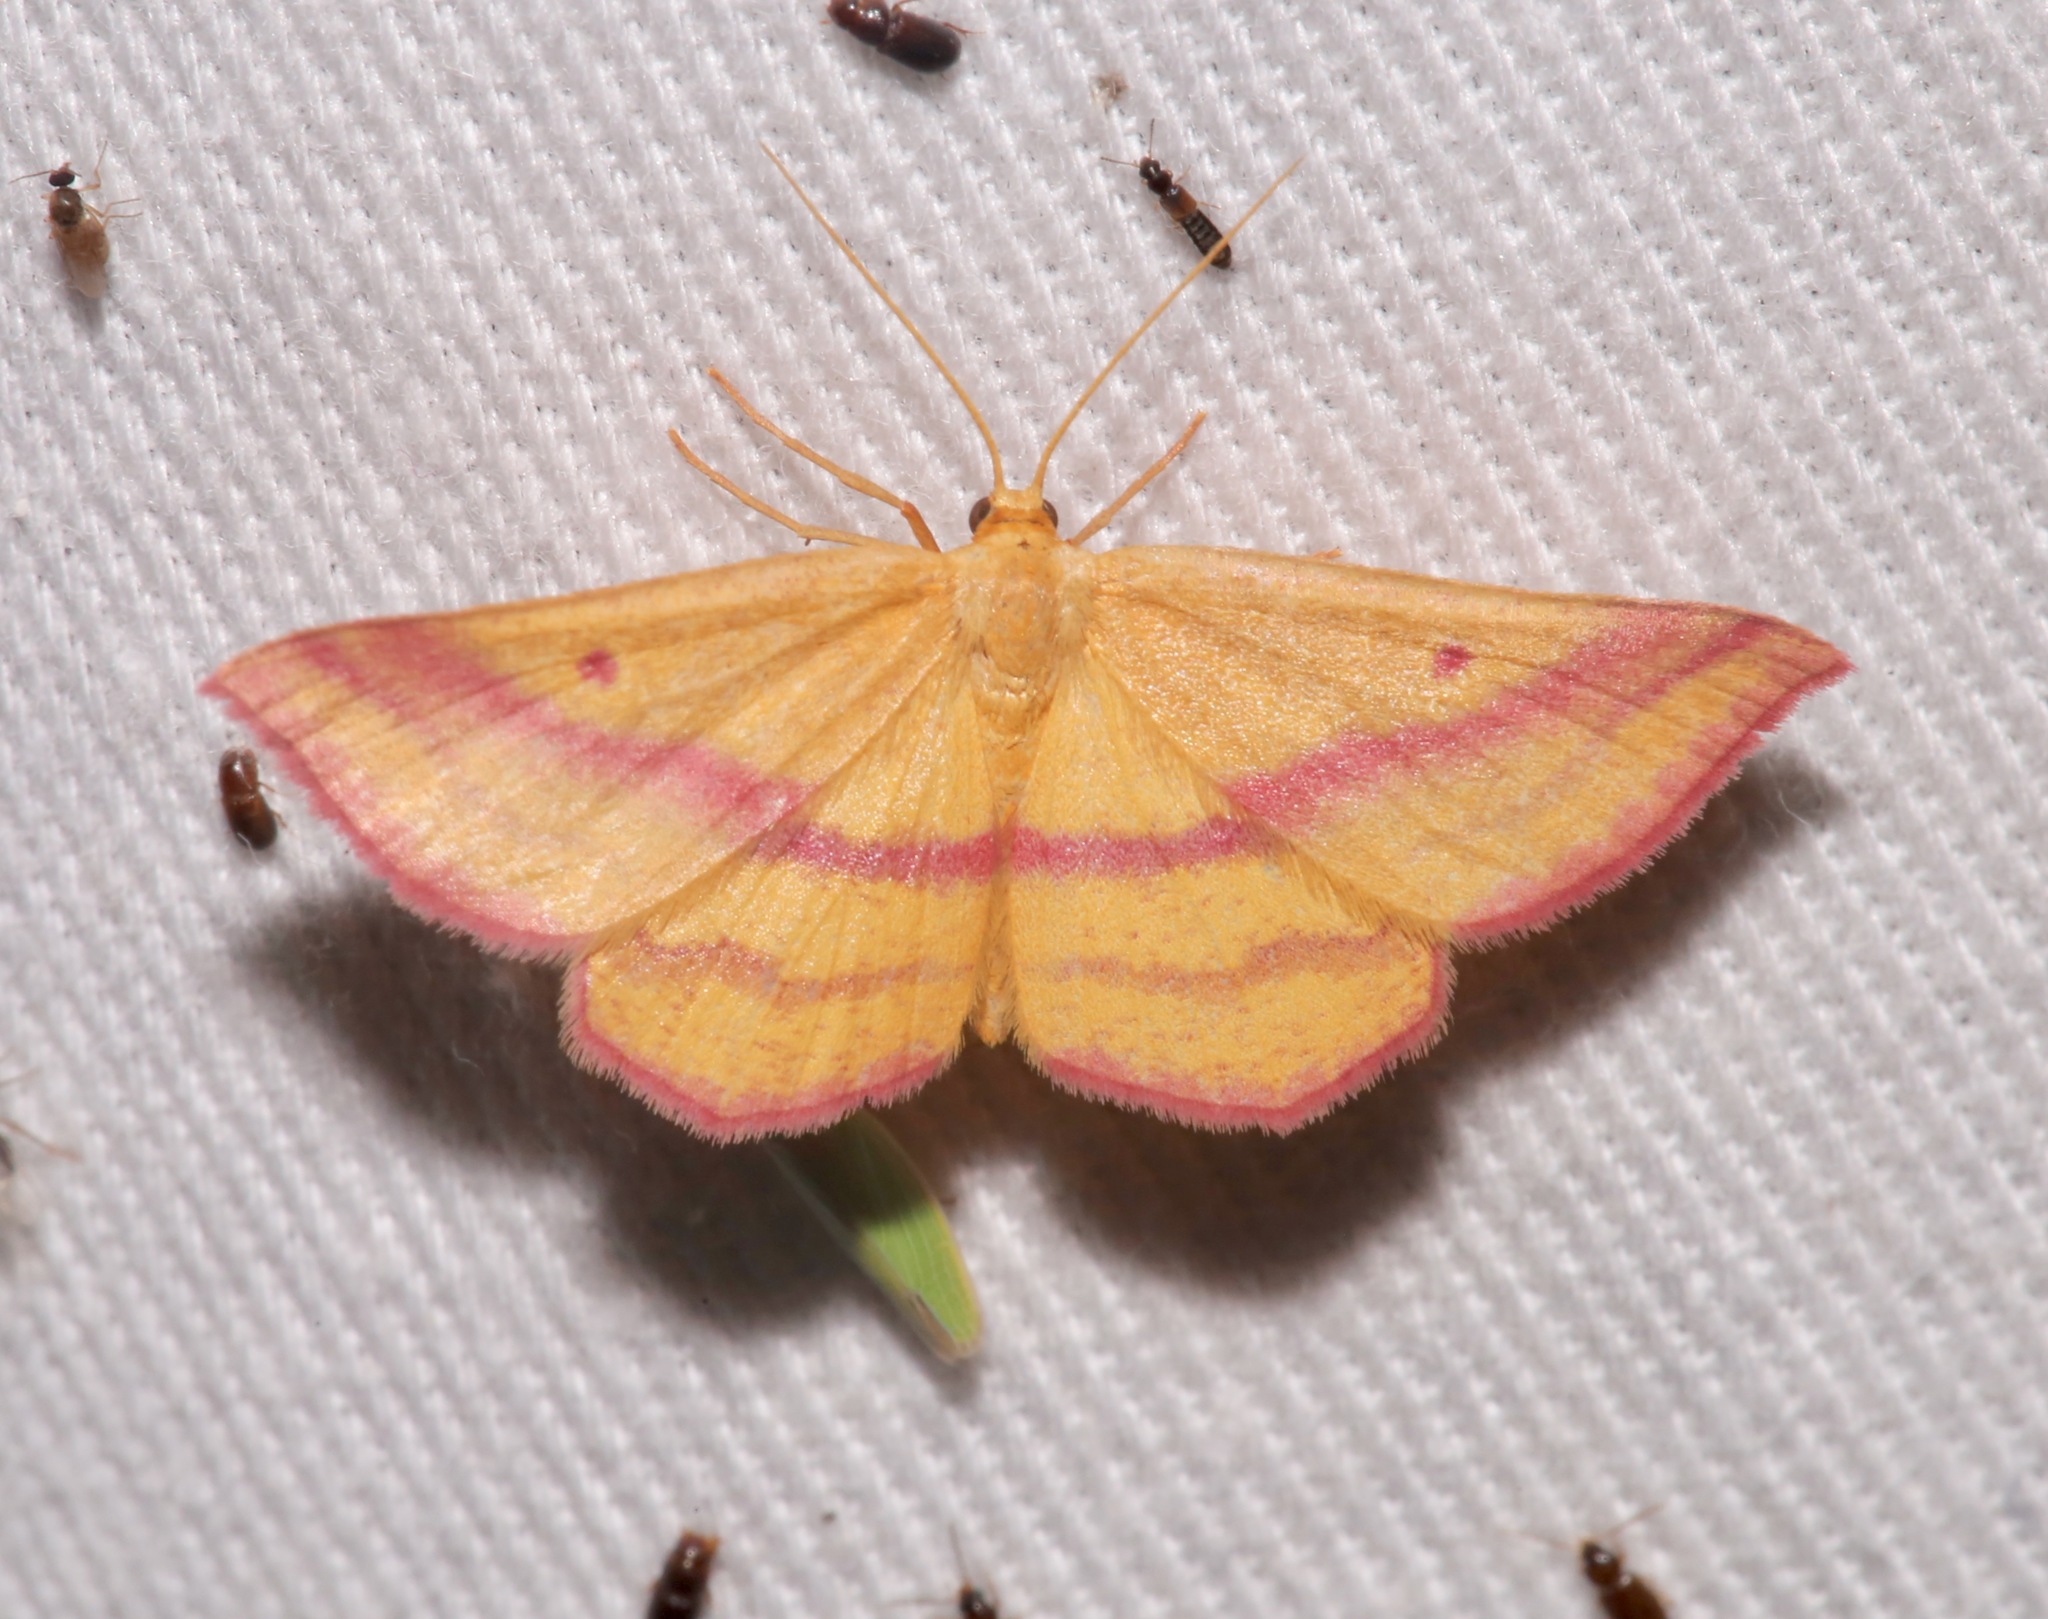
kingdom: Animalia
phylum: Arthropoda
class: Insecta
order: Lepidoptera
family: Geometridae
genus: Haematopis
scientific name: Haematopis grataria
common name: Chickweed geometer
